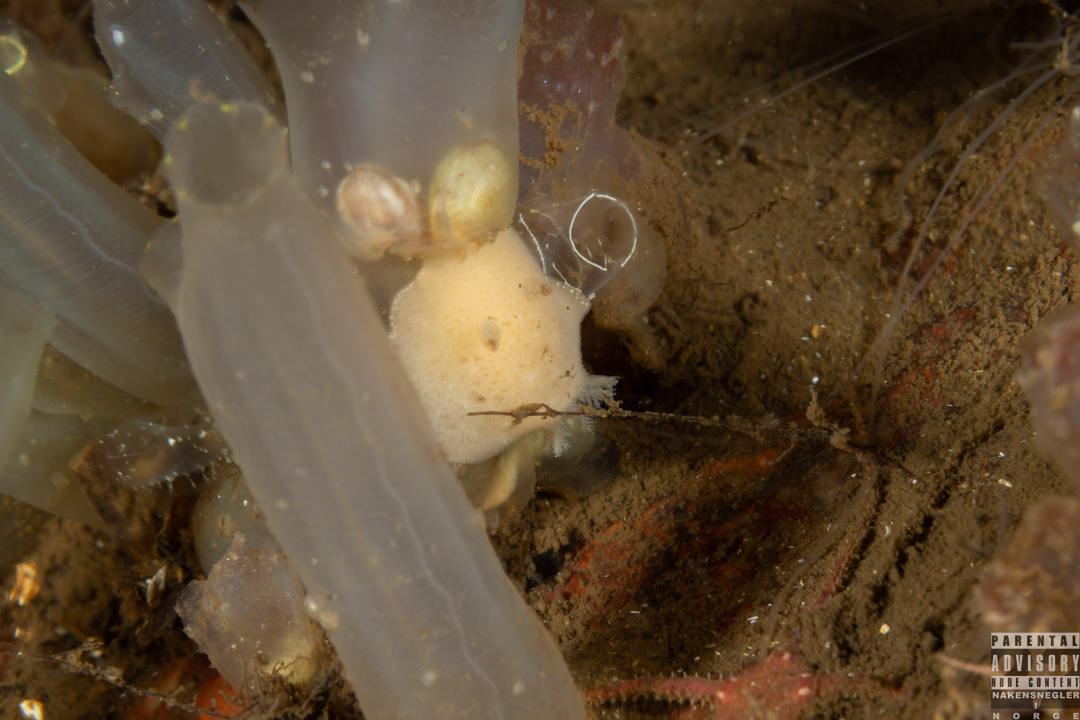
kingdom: Animalia
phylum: Mollusca
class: Gastropoda
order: Nudibranchia
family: Discodorididae
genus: Jorunna
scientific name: Jorunna tomentosa
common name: Grey sea slug
